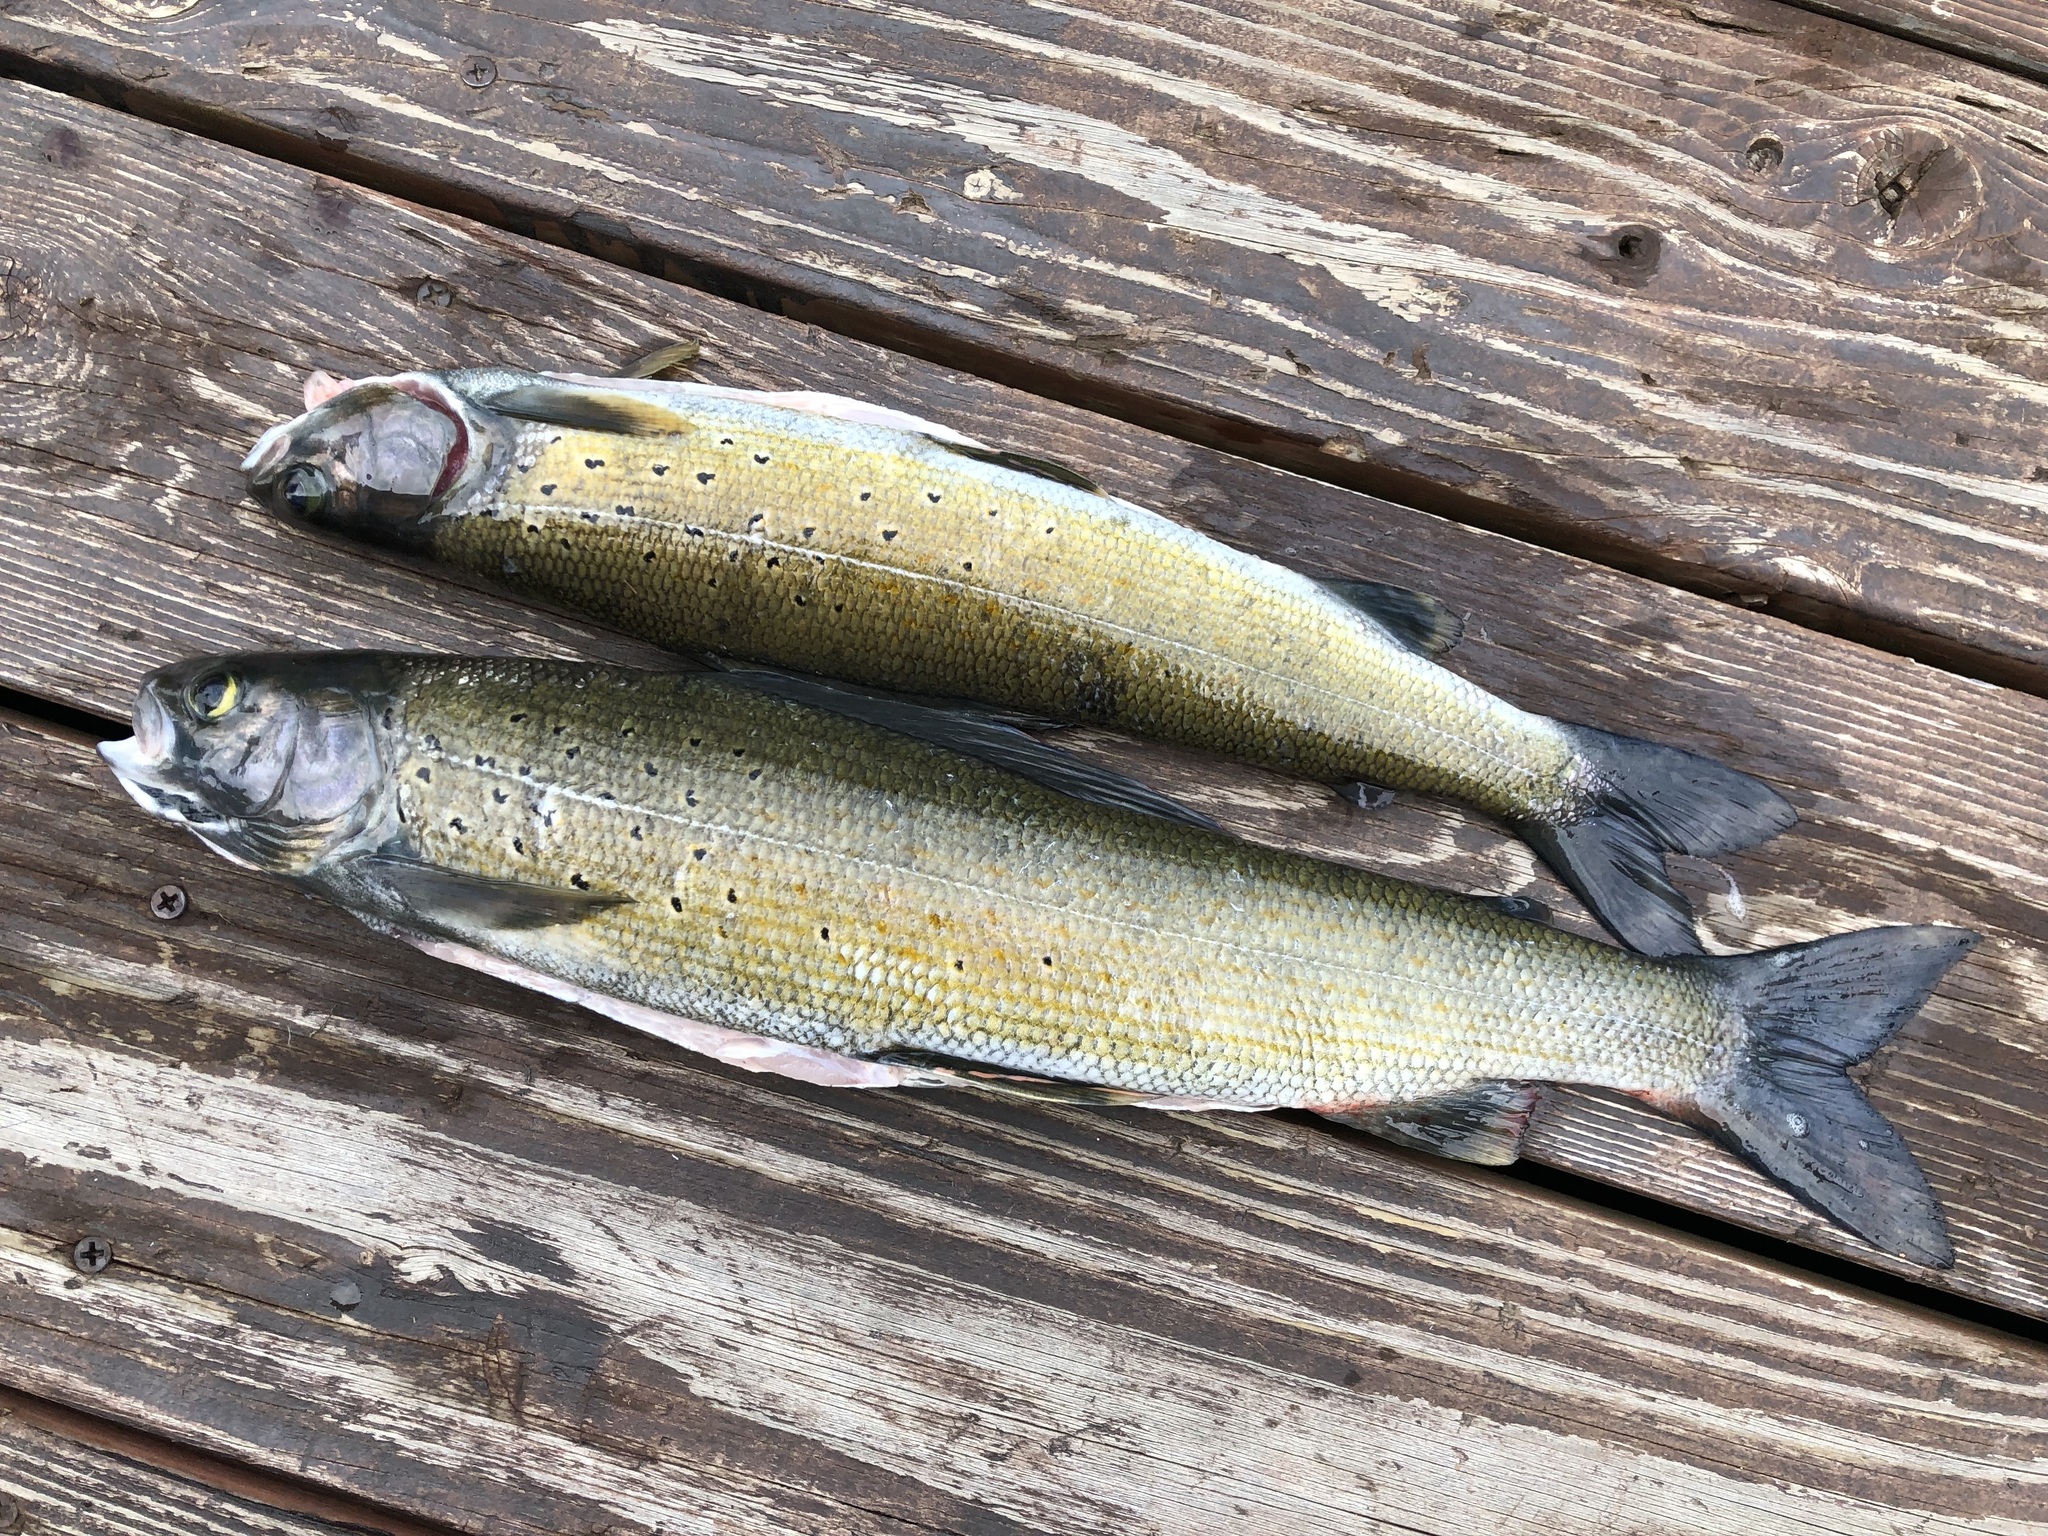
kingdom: Animalia
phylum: Chordata
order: Salmoniformes
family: Salmonidae
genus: Thymallus
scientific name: Thymallus arcticus
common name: Arctic grayling
